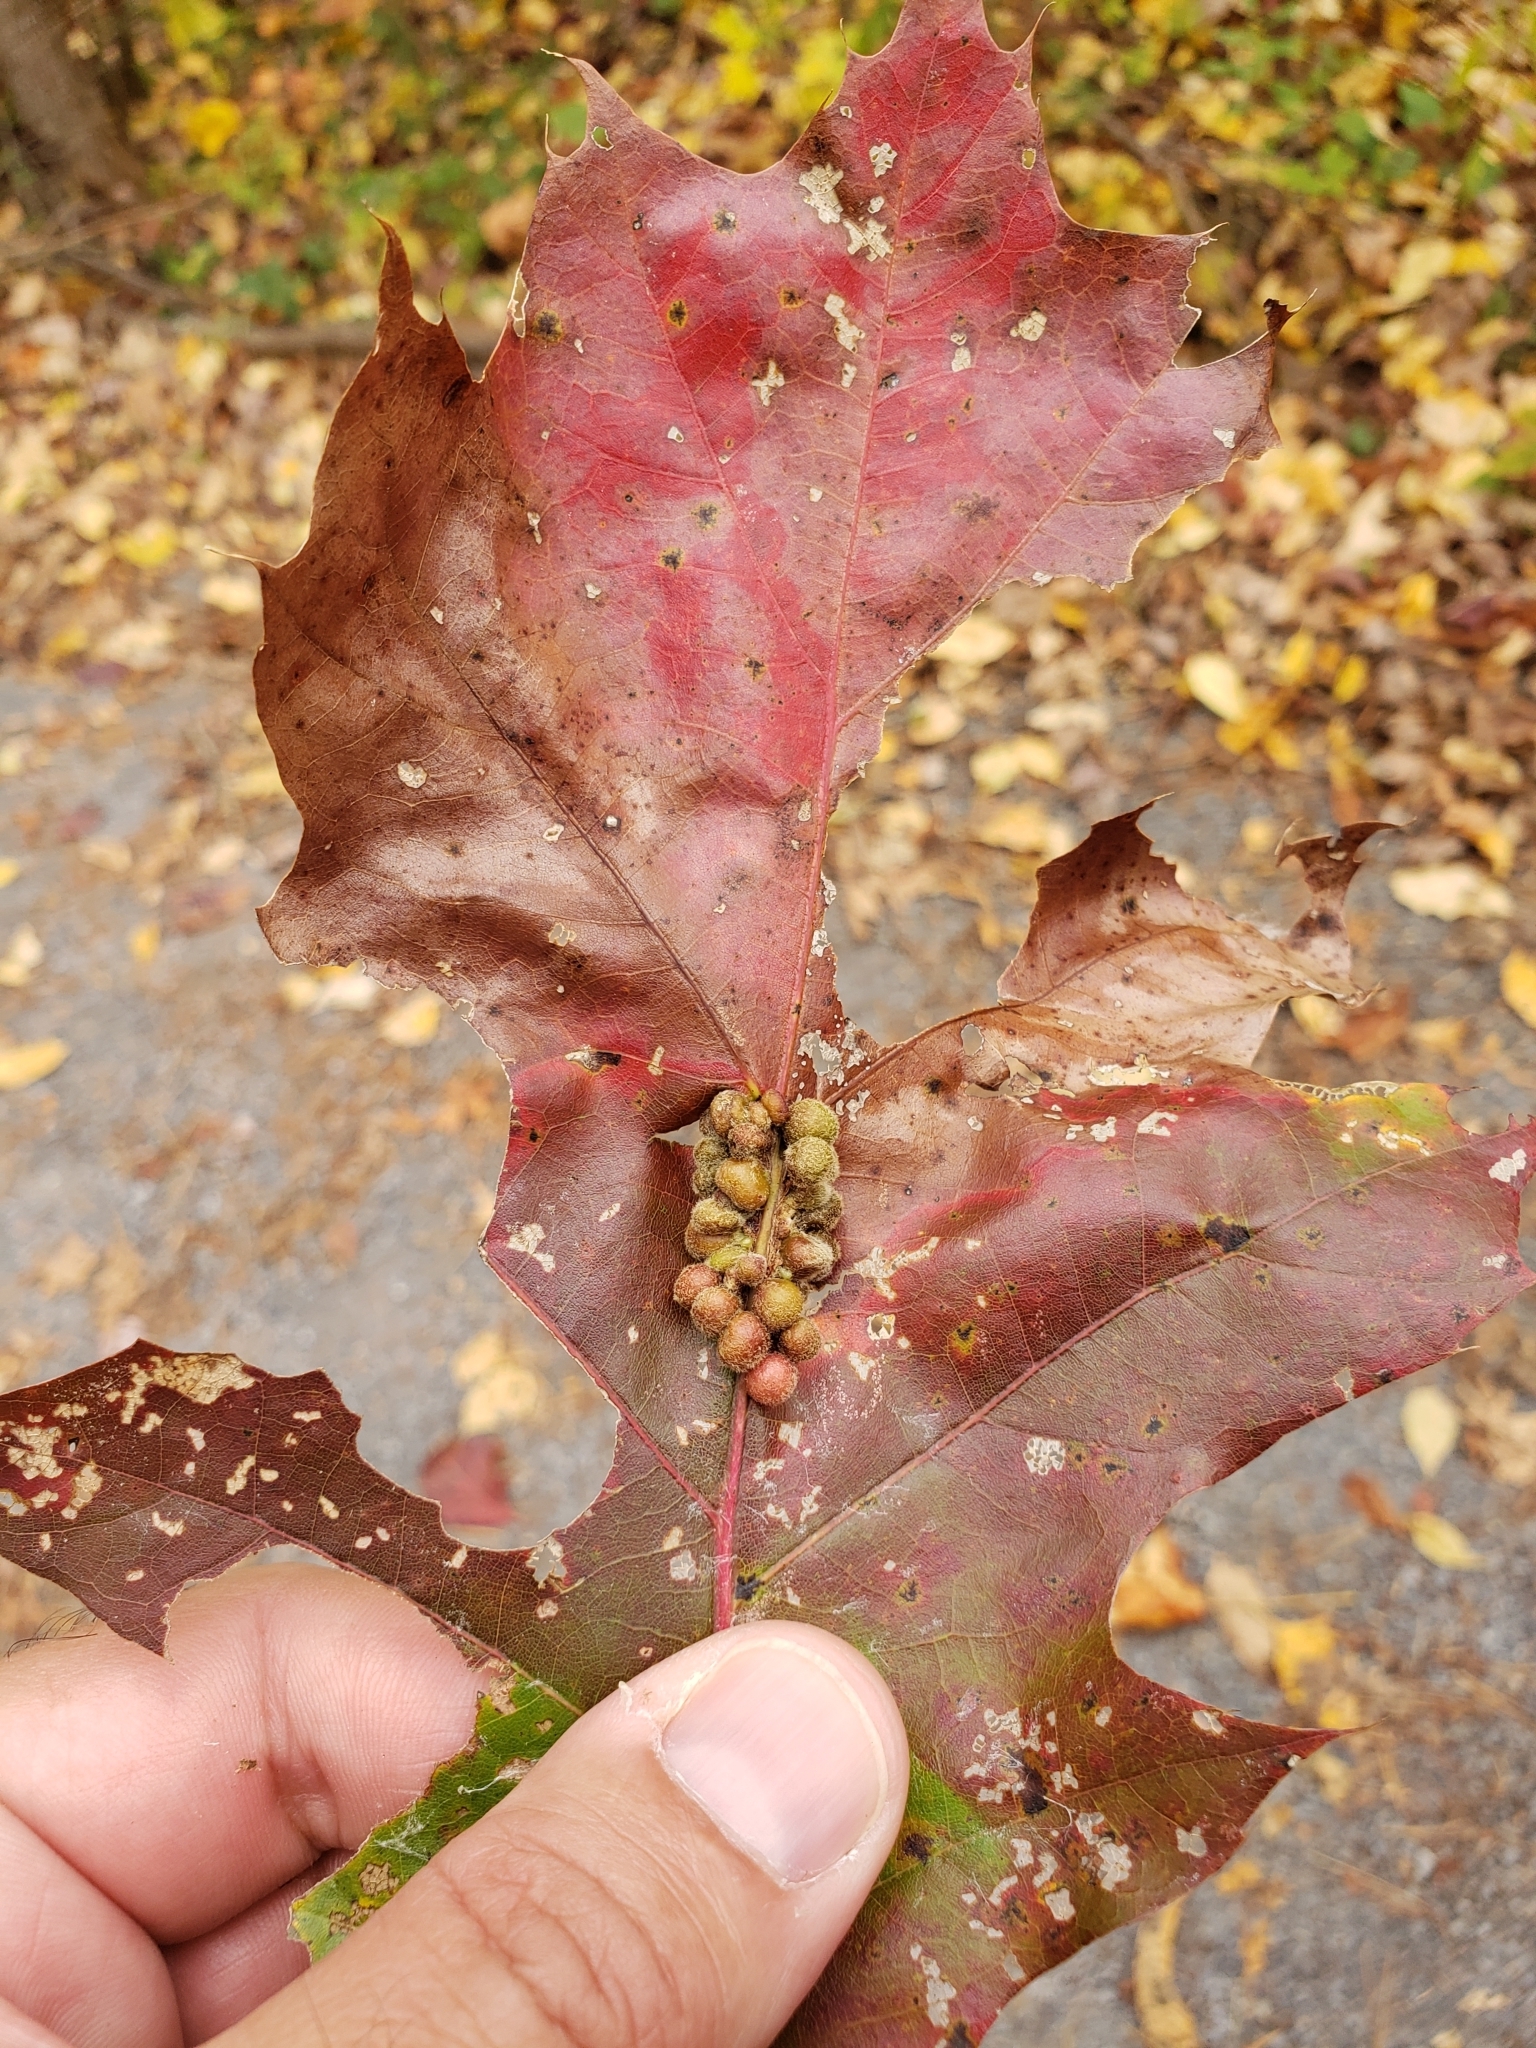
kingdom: Animalia
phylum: Arthropoda
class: Insecta
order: Hymenoptera
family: Cynipidae
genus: Callirhytis
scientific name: Callirhytis
